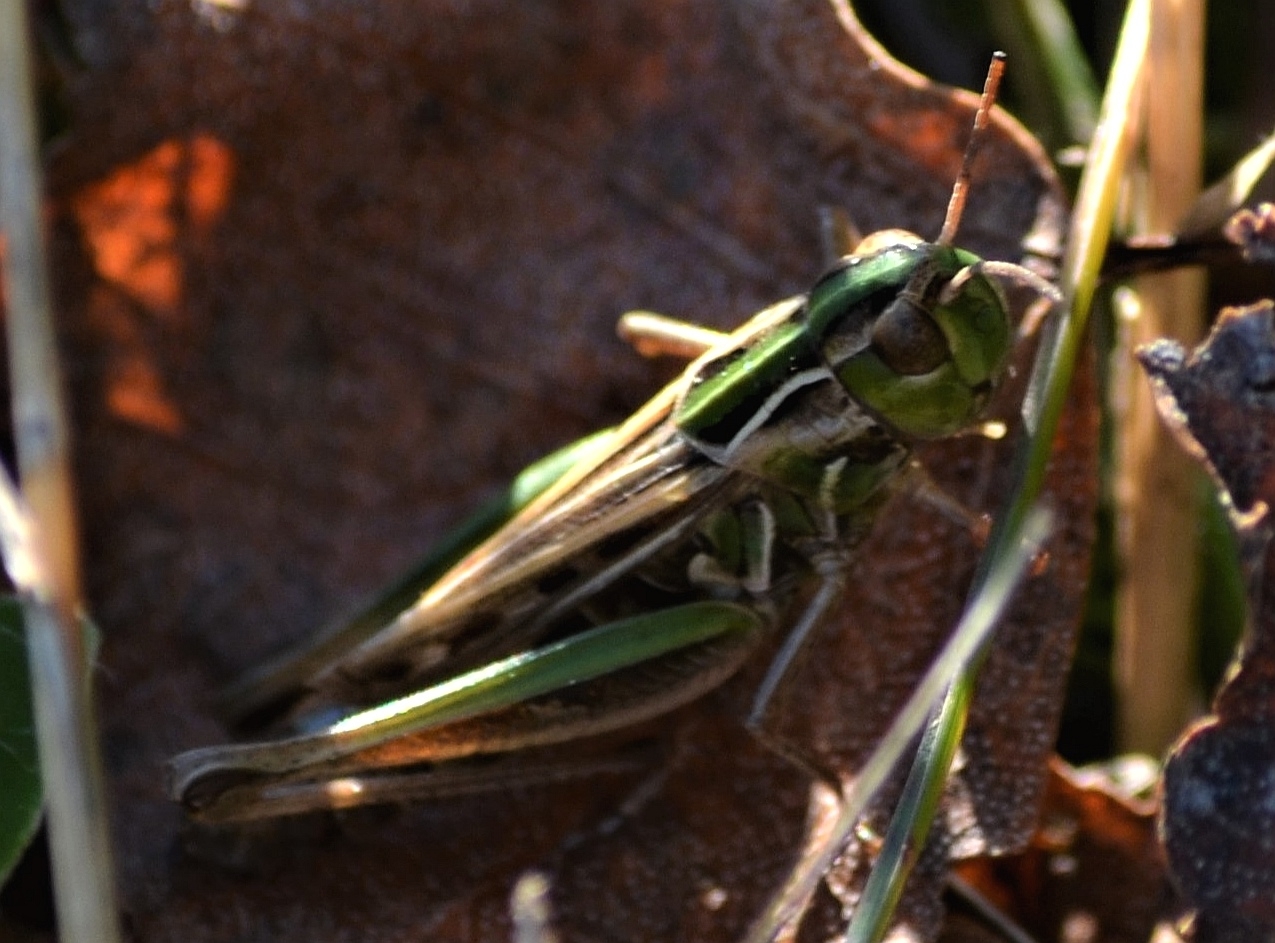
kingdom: Animalia
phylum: Arthropoda
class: Insecta
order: Orthoptera
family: Acrididae
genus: Stenobothrus
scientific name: Stenobothrus stigmaticus
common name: Lesser mottled grasshopper
